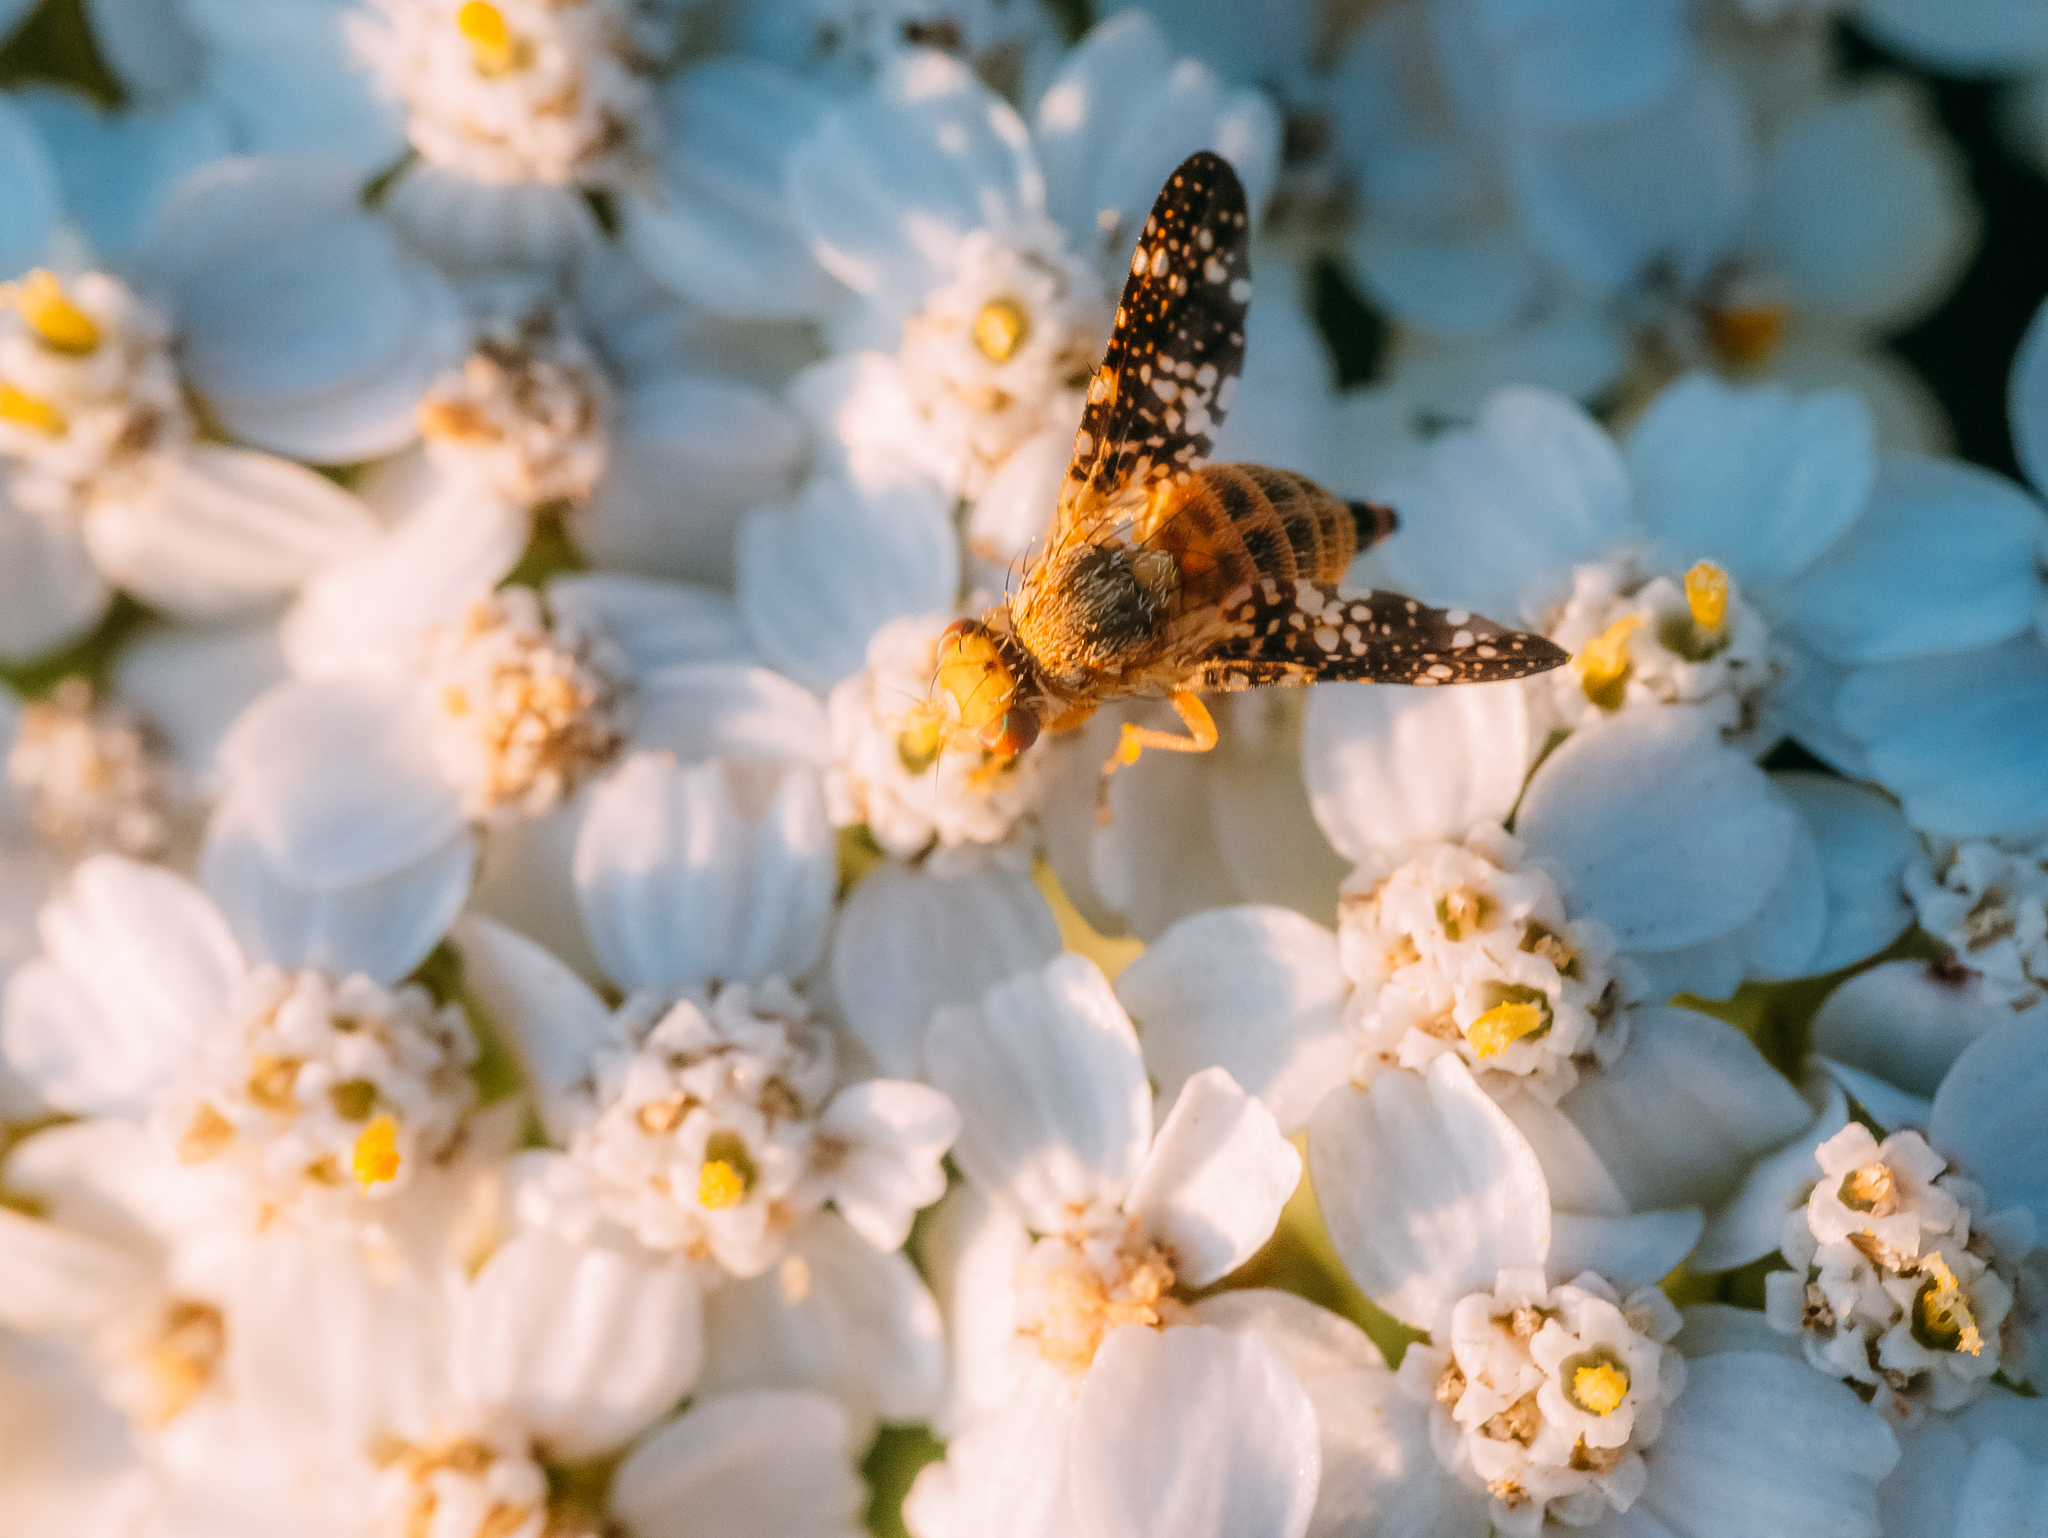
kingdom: Animalia
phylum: Arthropoda
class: Insecta
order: Diptera
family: Tephritidae
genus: Oxyna
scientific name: Oxyna flavipennis
